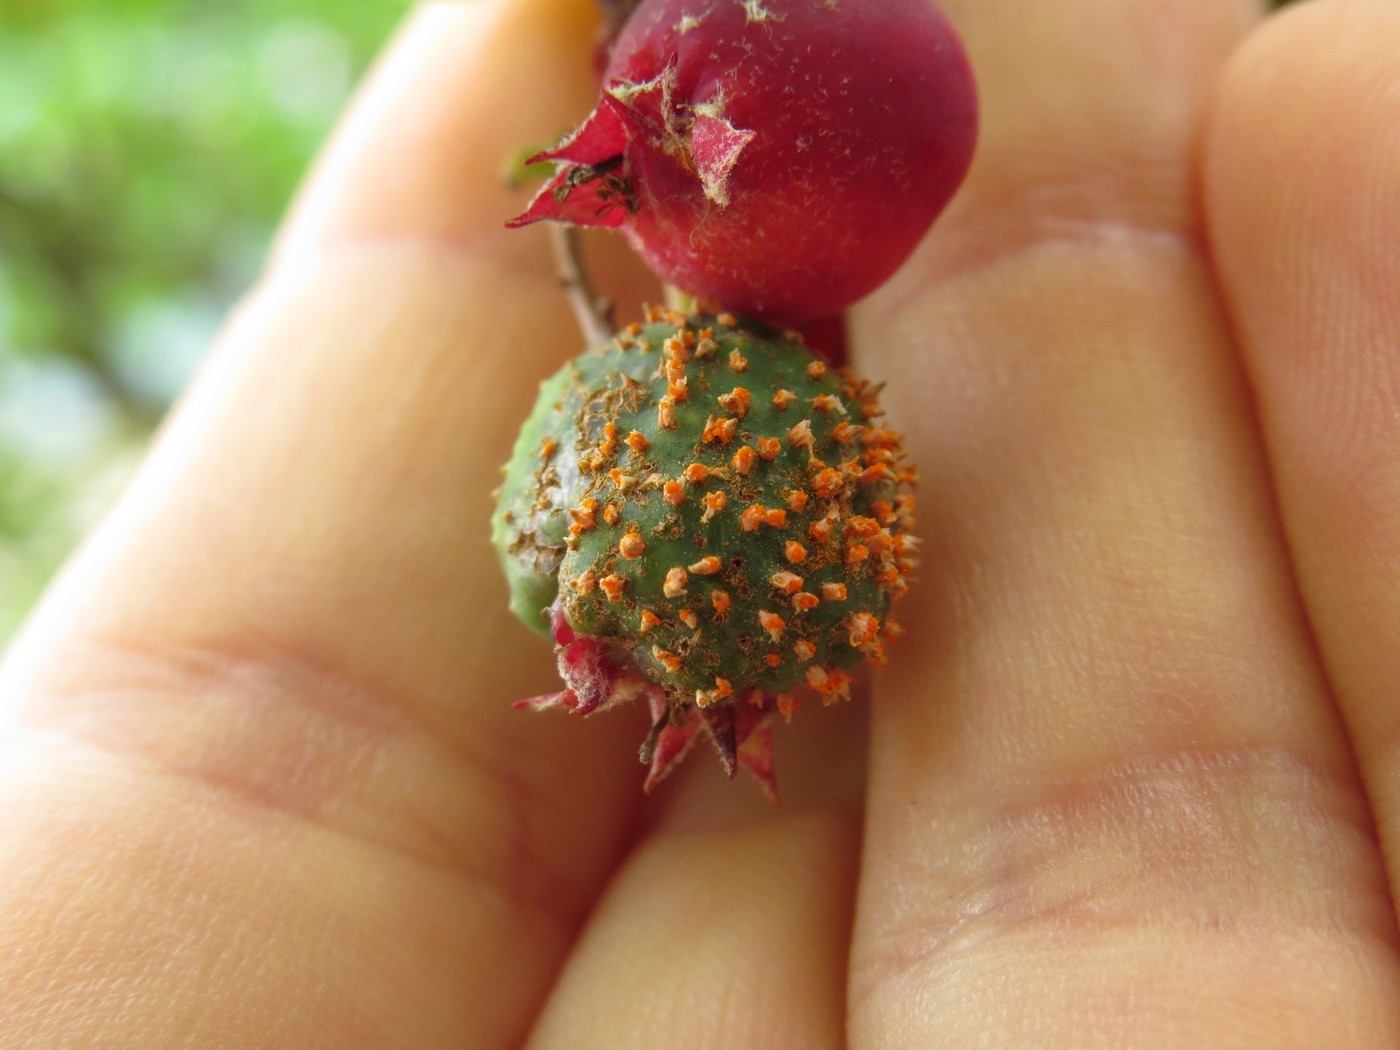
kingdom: Fungi
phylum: Basidiomycota
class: Pucciniomycetes
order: Pucciniales
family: Gymnosporangiaceae
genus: Gymnosporangium
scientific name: Gymnosporangium clavipes
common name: Quince rust
